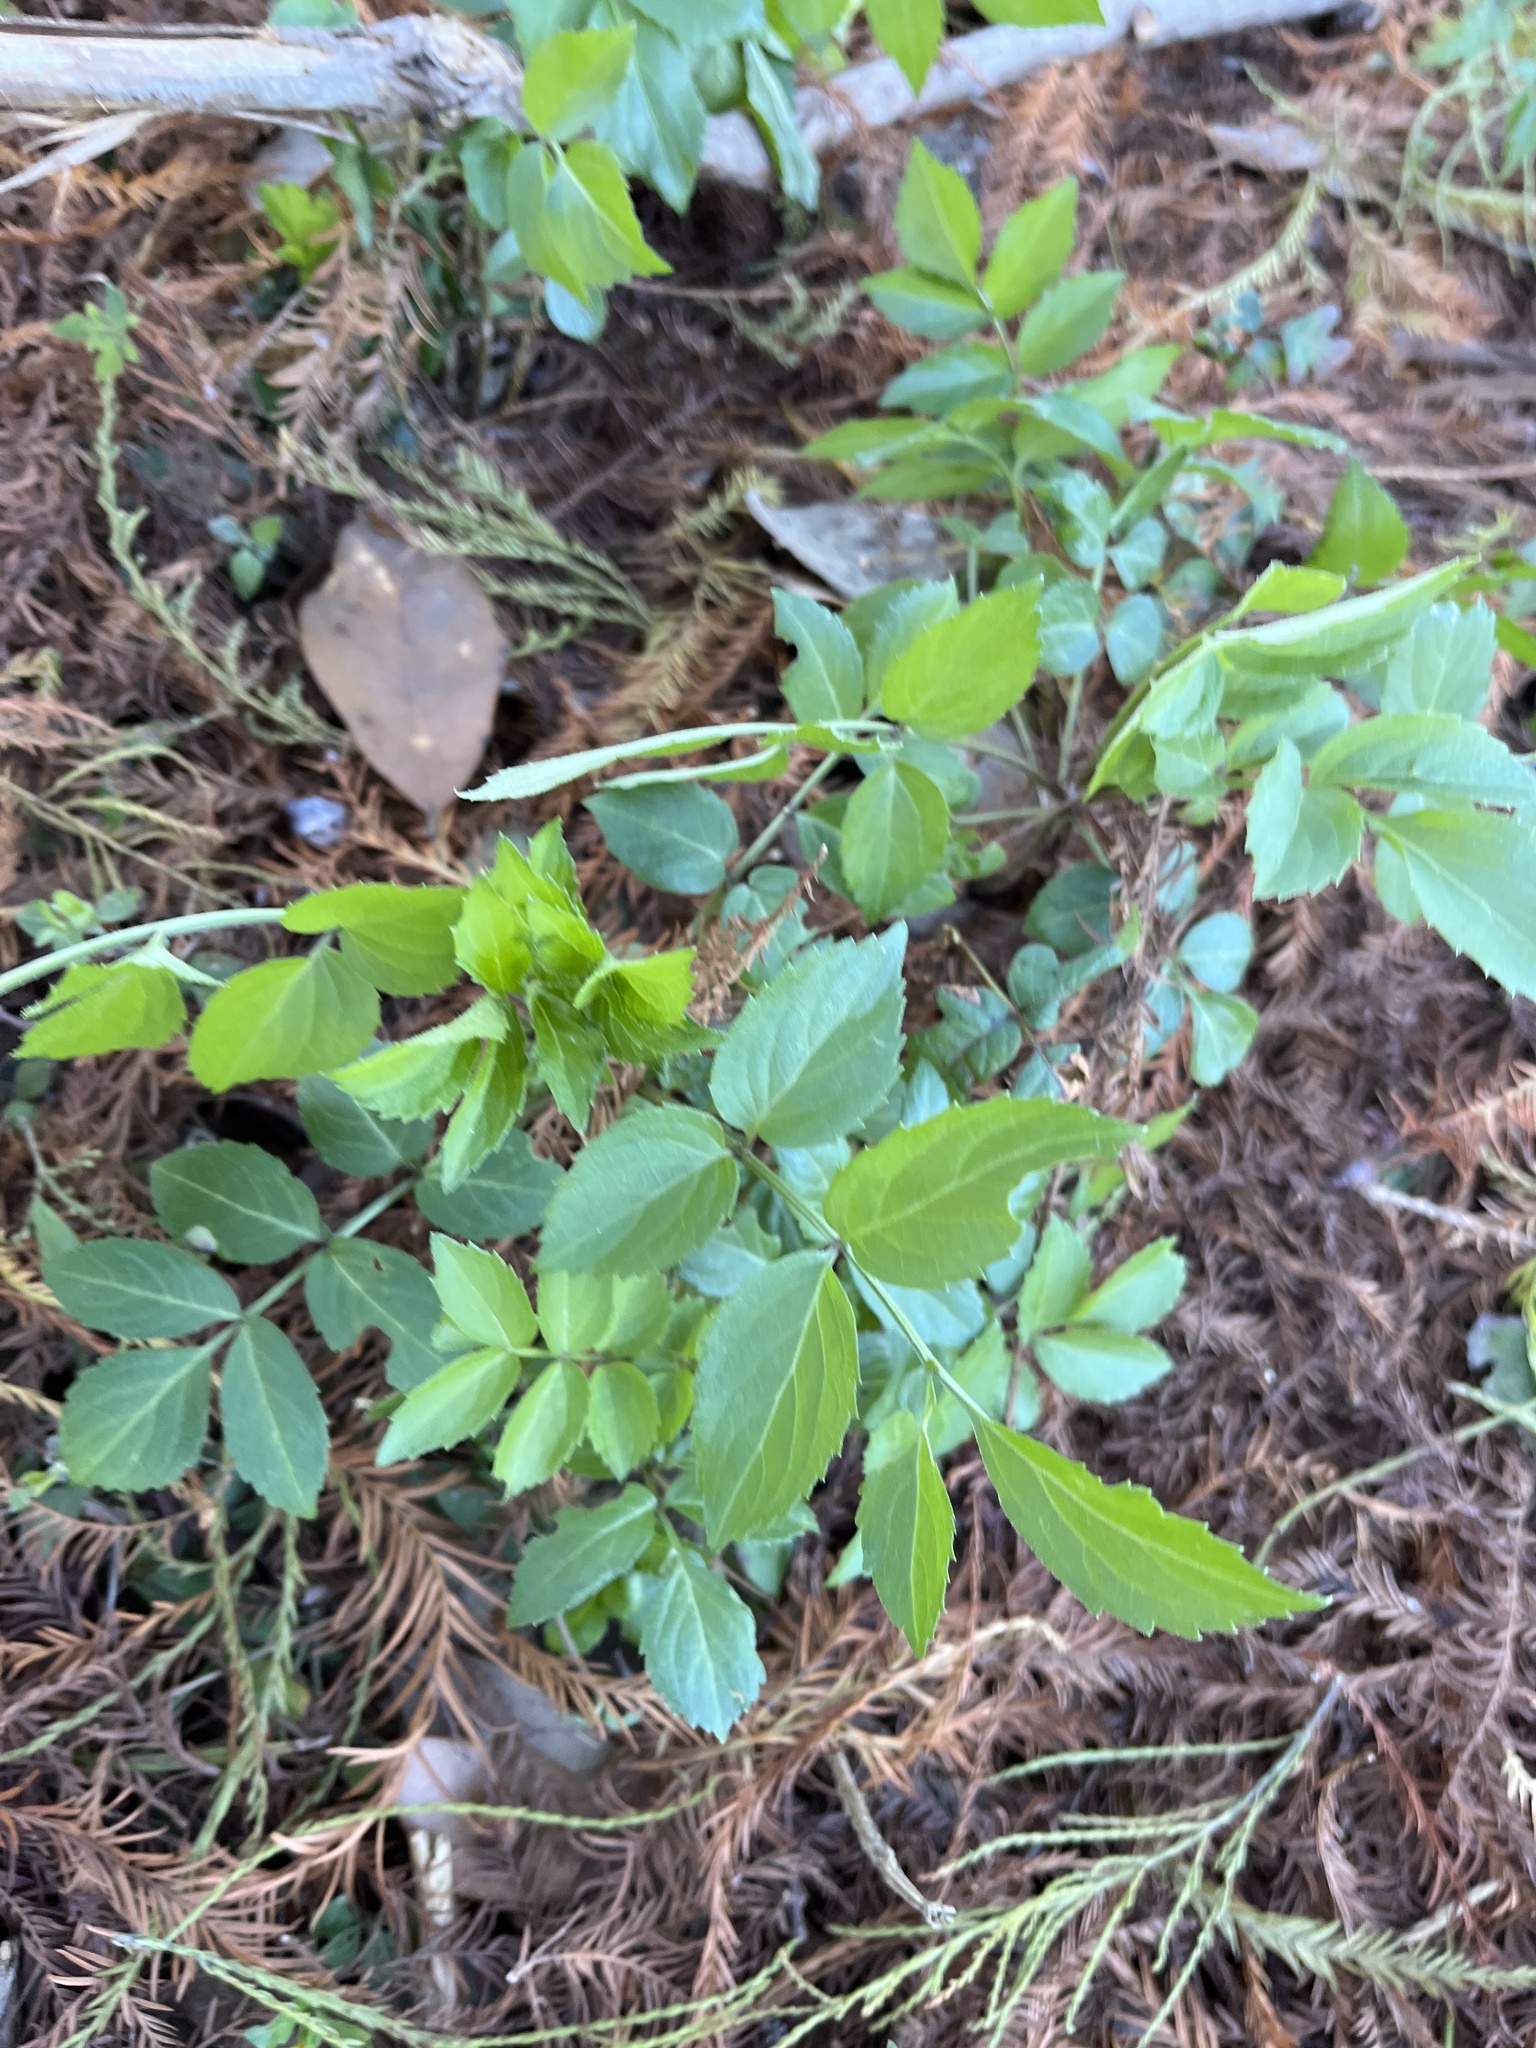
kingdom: Plantae
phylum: Tracheophyta
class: Magnoliopsida
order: Dipsacales
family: Viburnaceae
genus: Sambucus
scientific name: Sambucus canadensis
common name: American elder
